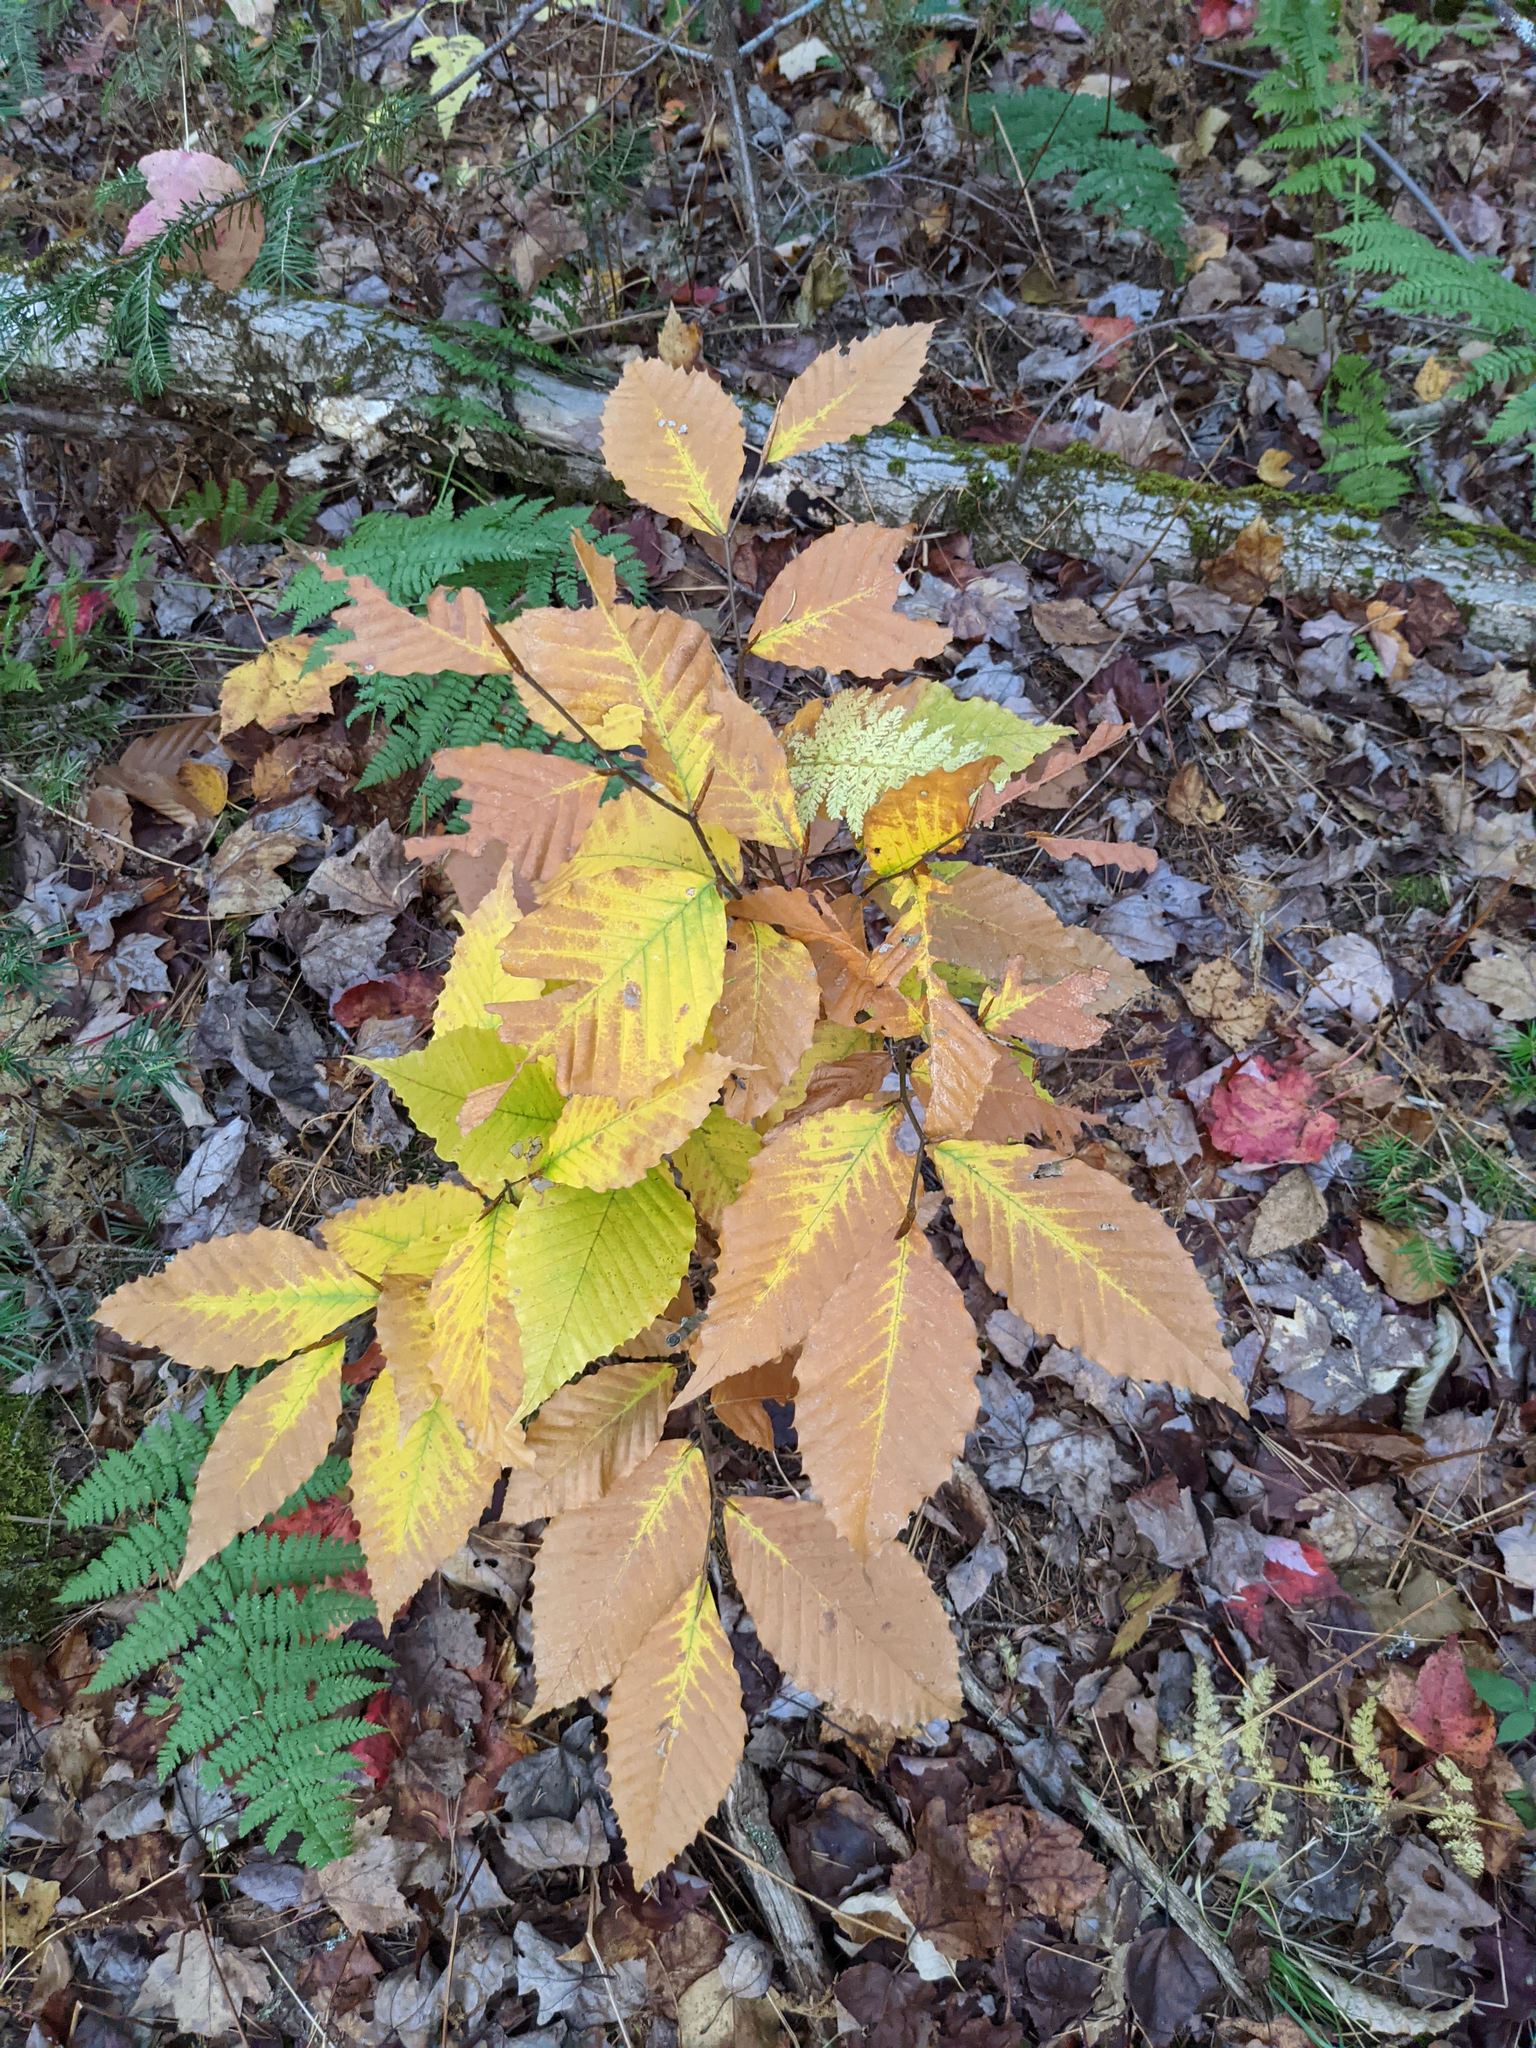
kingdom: Plantae
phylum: Tracheophyta
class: Magnoliopsida
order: Fagales
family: Fagaceae
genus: Fagus
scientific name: Fagus grandifolia
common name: American beech
